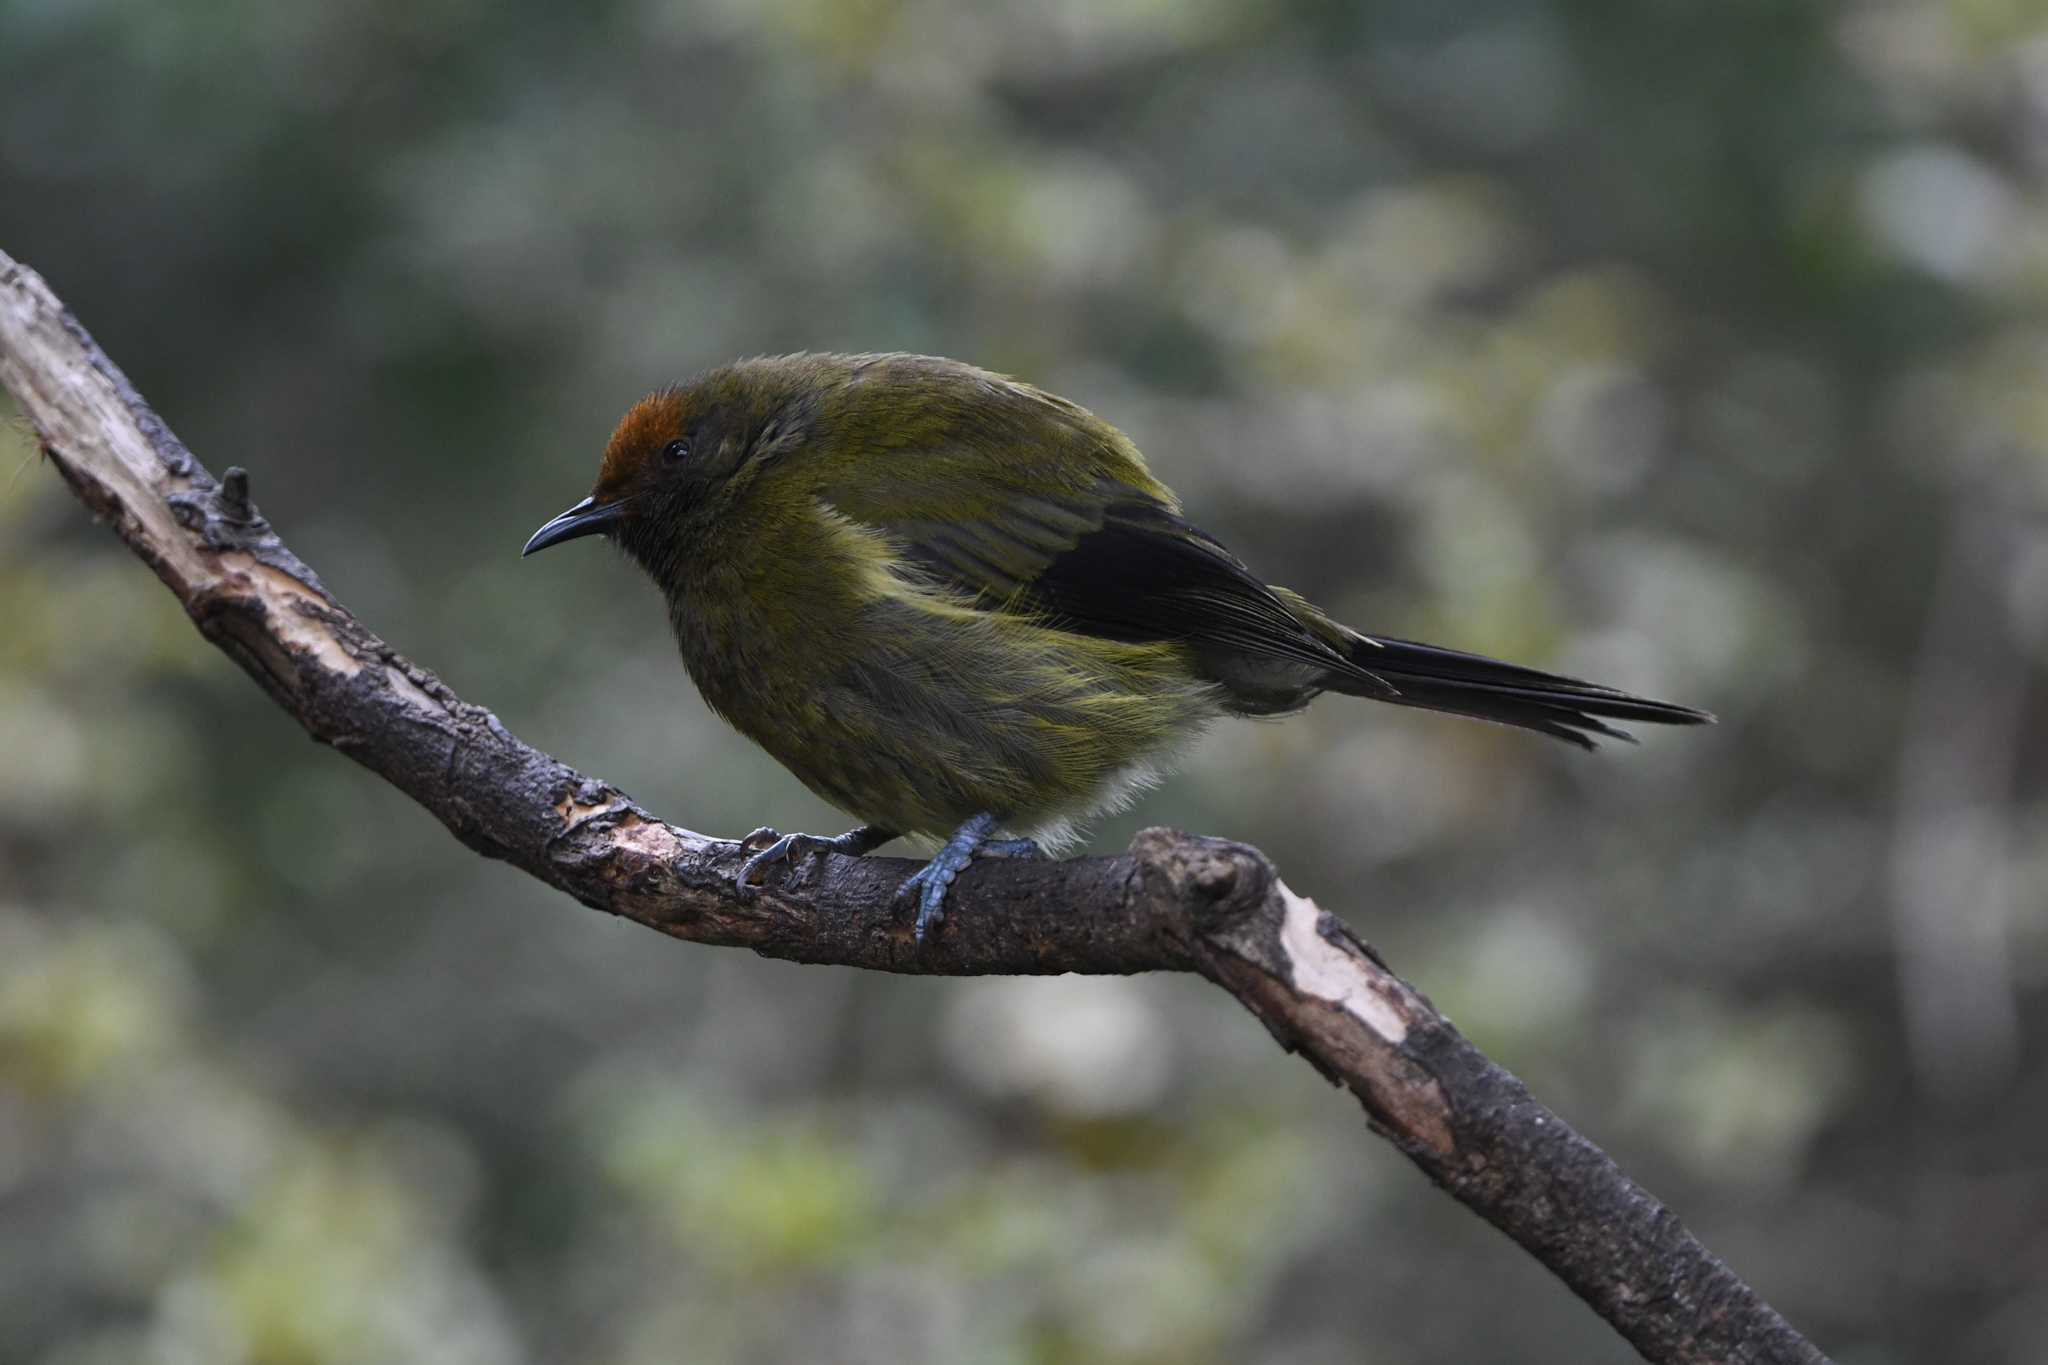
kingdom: Animalia
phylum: Chordata
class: Aves
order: Passeriformes
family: Meliphagidae
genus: Anthornis
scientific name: Anthornis melanura
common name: New zealand bellbird
